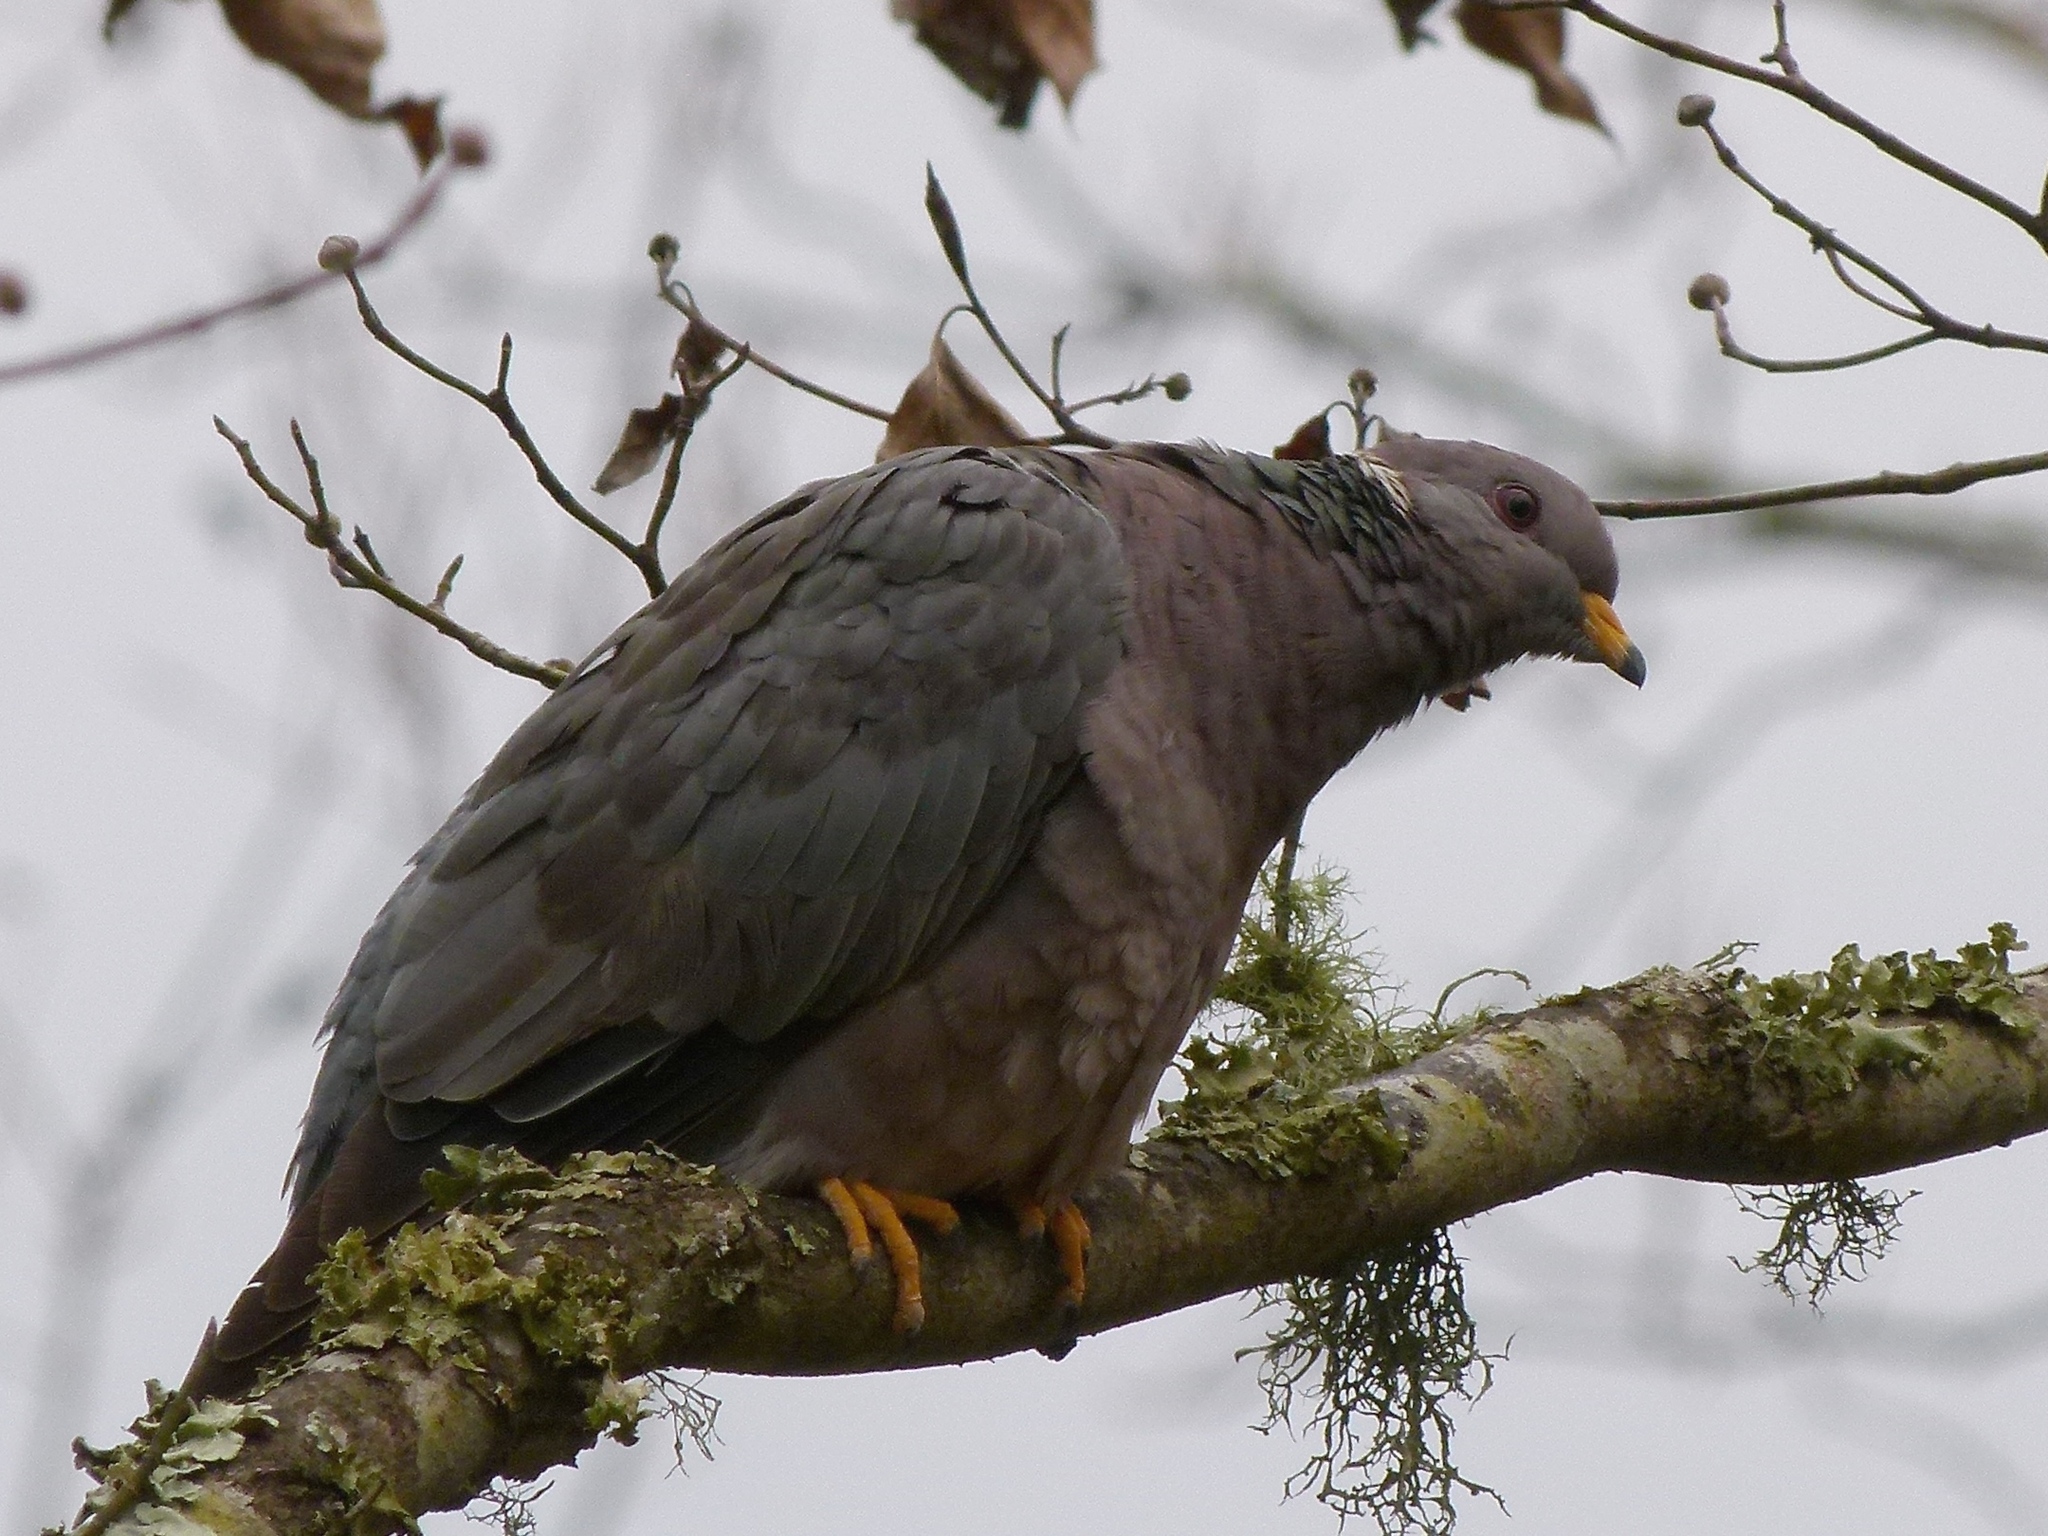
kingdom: Animalia
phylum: Chordata
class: Aves
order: Columbiformes
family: Columbidae
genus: Patagioenas
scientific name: Patagioenas fasciata
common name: Band-tailed pigeon
